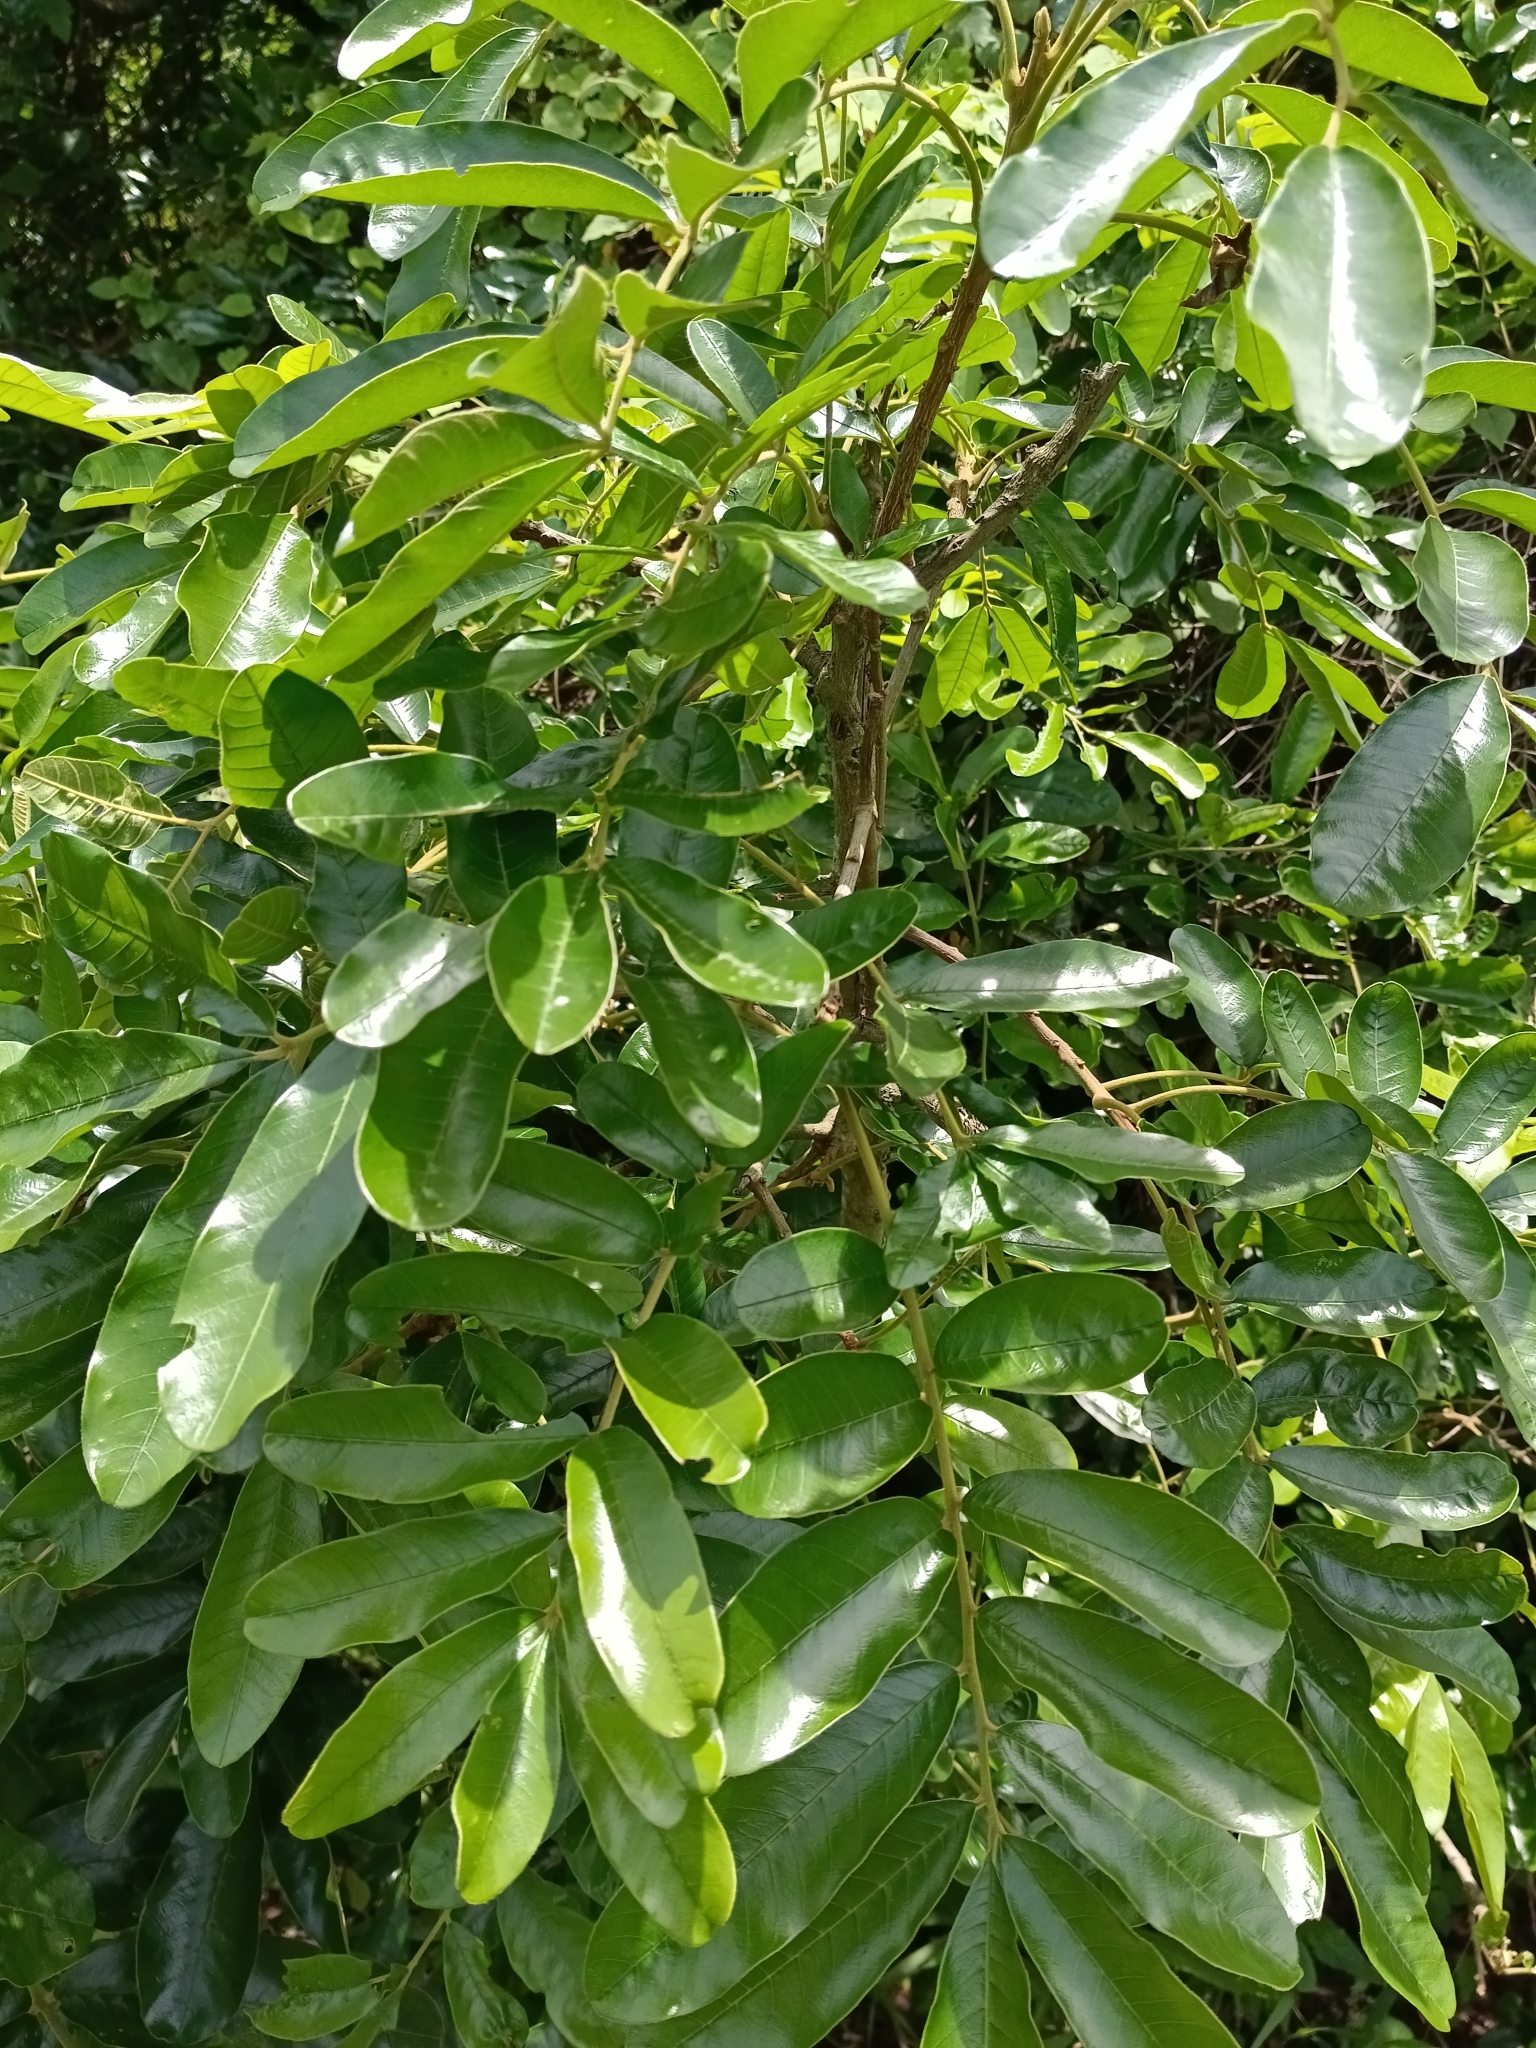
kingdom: Plantae
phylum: Tracheophyta
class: Magnoliopsida
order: Sapindales
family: Meliaceae
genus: Trichilia
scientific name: Trichilia emetica
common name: Christmas-bells
